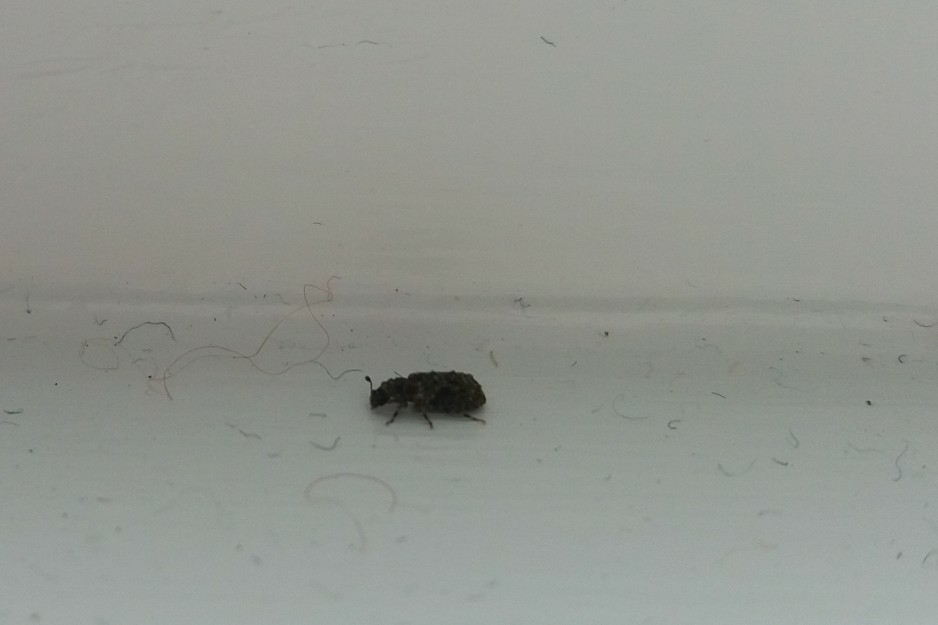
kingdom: Animalia
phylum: Arthropoda
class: Insecta
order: Coleoptera
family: Zopheridae
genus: Pristoderus
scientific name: Pristoderus
